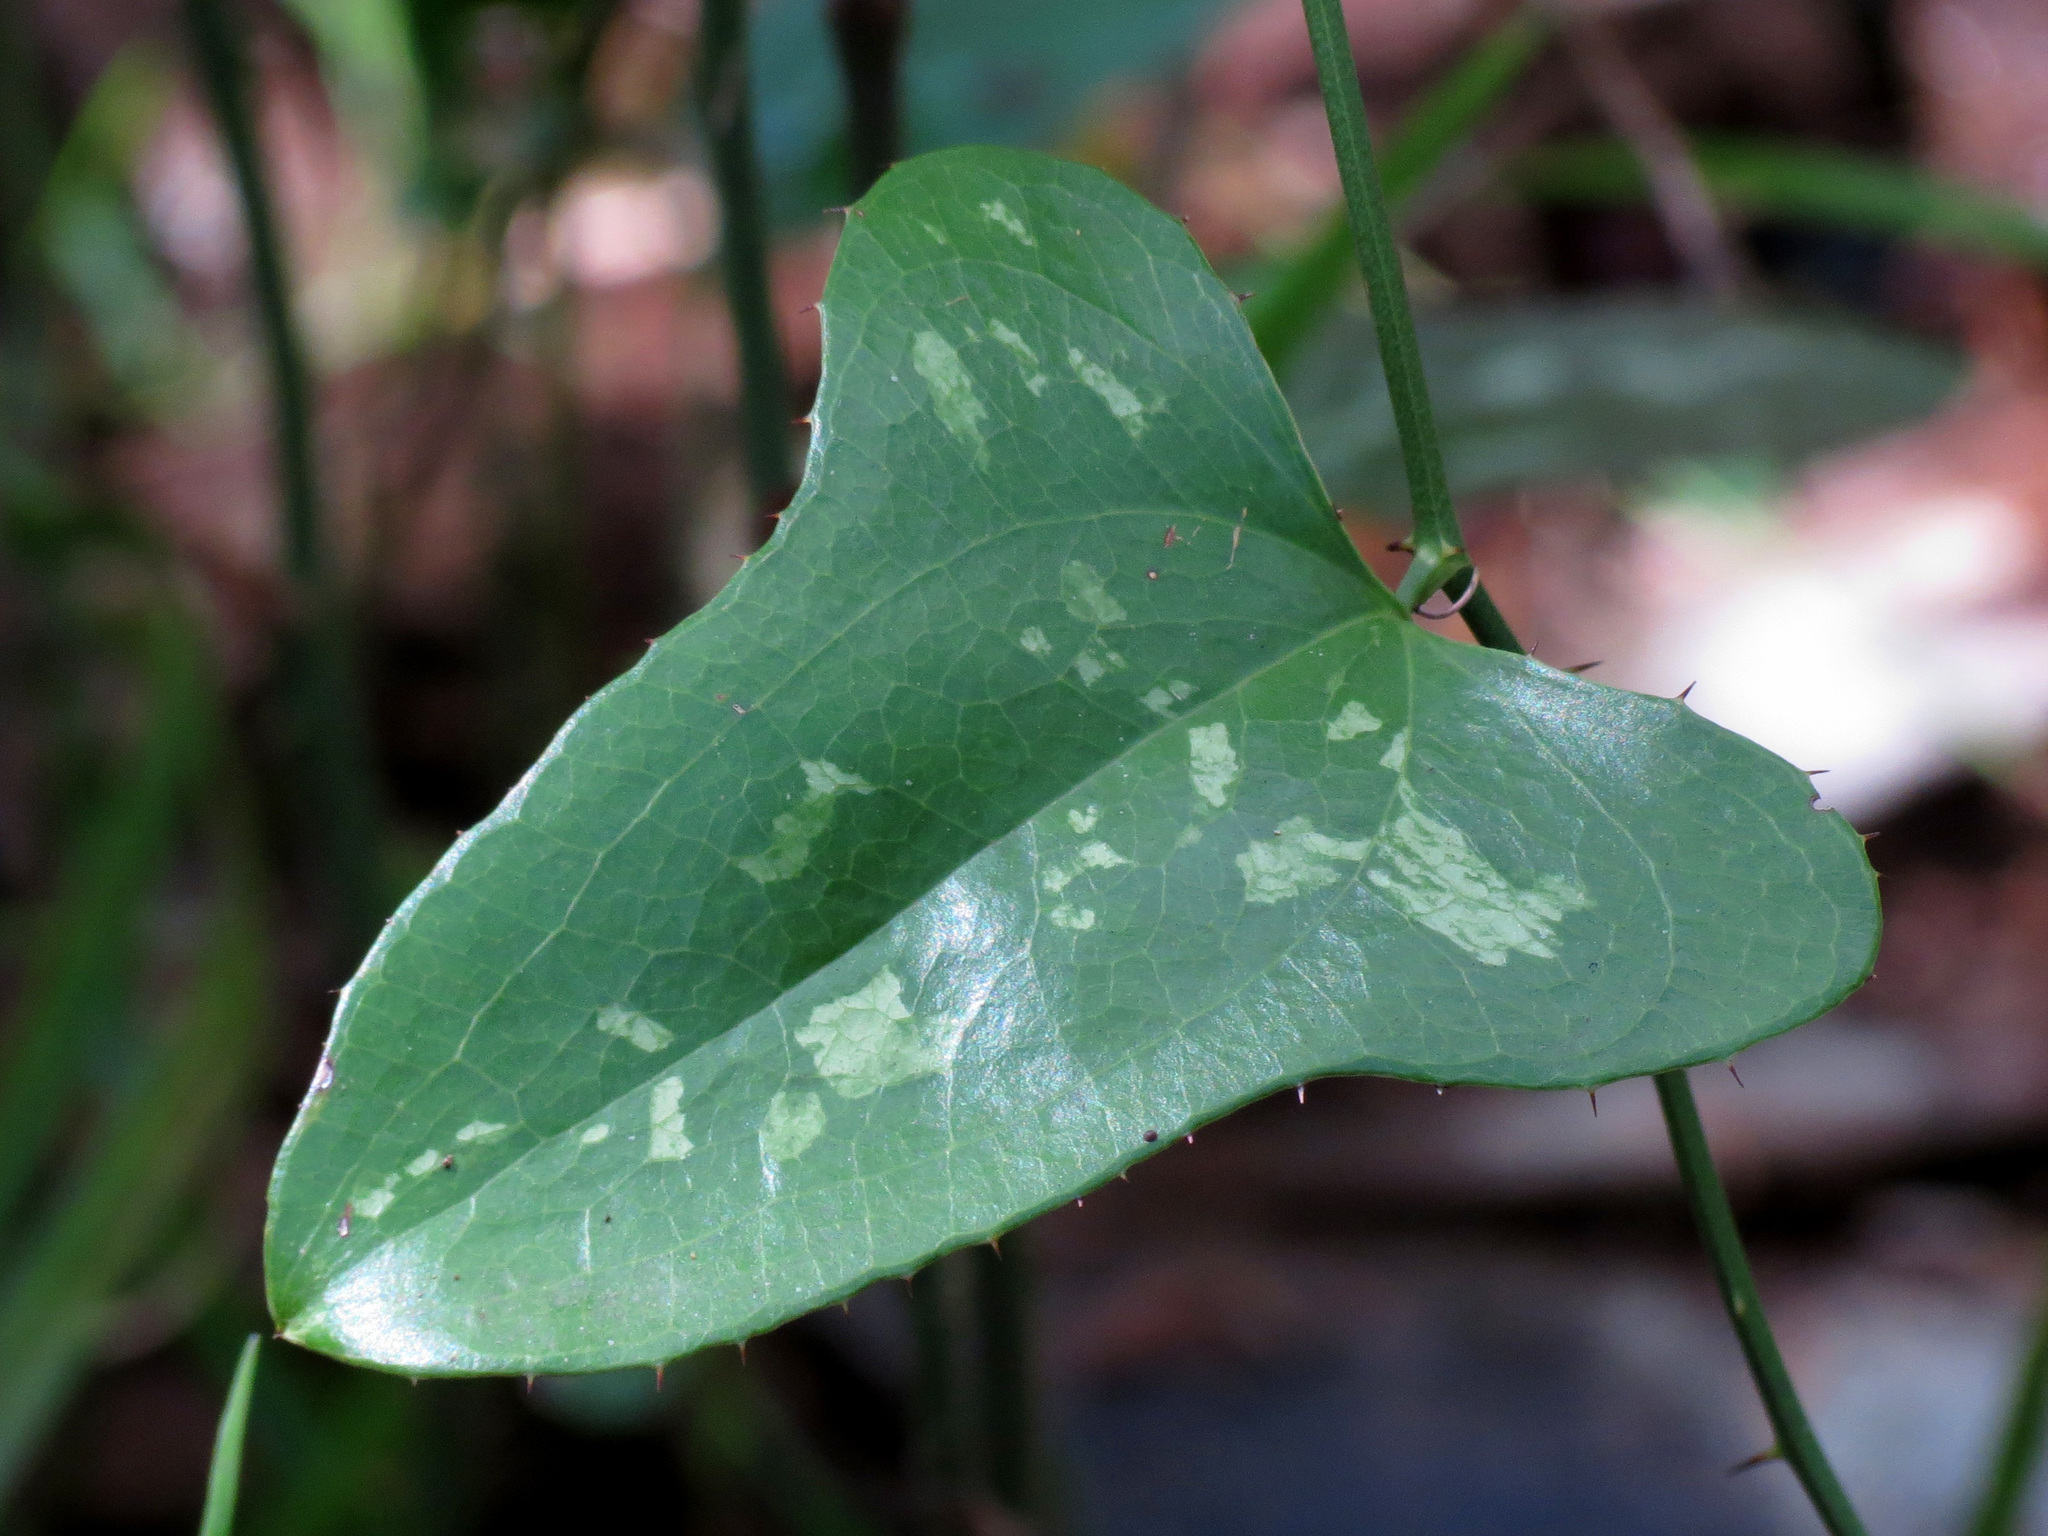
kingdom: Plantae
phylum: Tracheophyta
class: Liliopsida
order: Liliales
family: Smilacaceae
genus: Smilax
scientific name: Smilax bona-nox
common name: Catbrier
